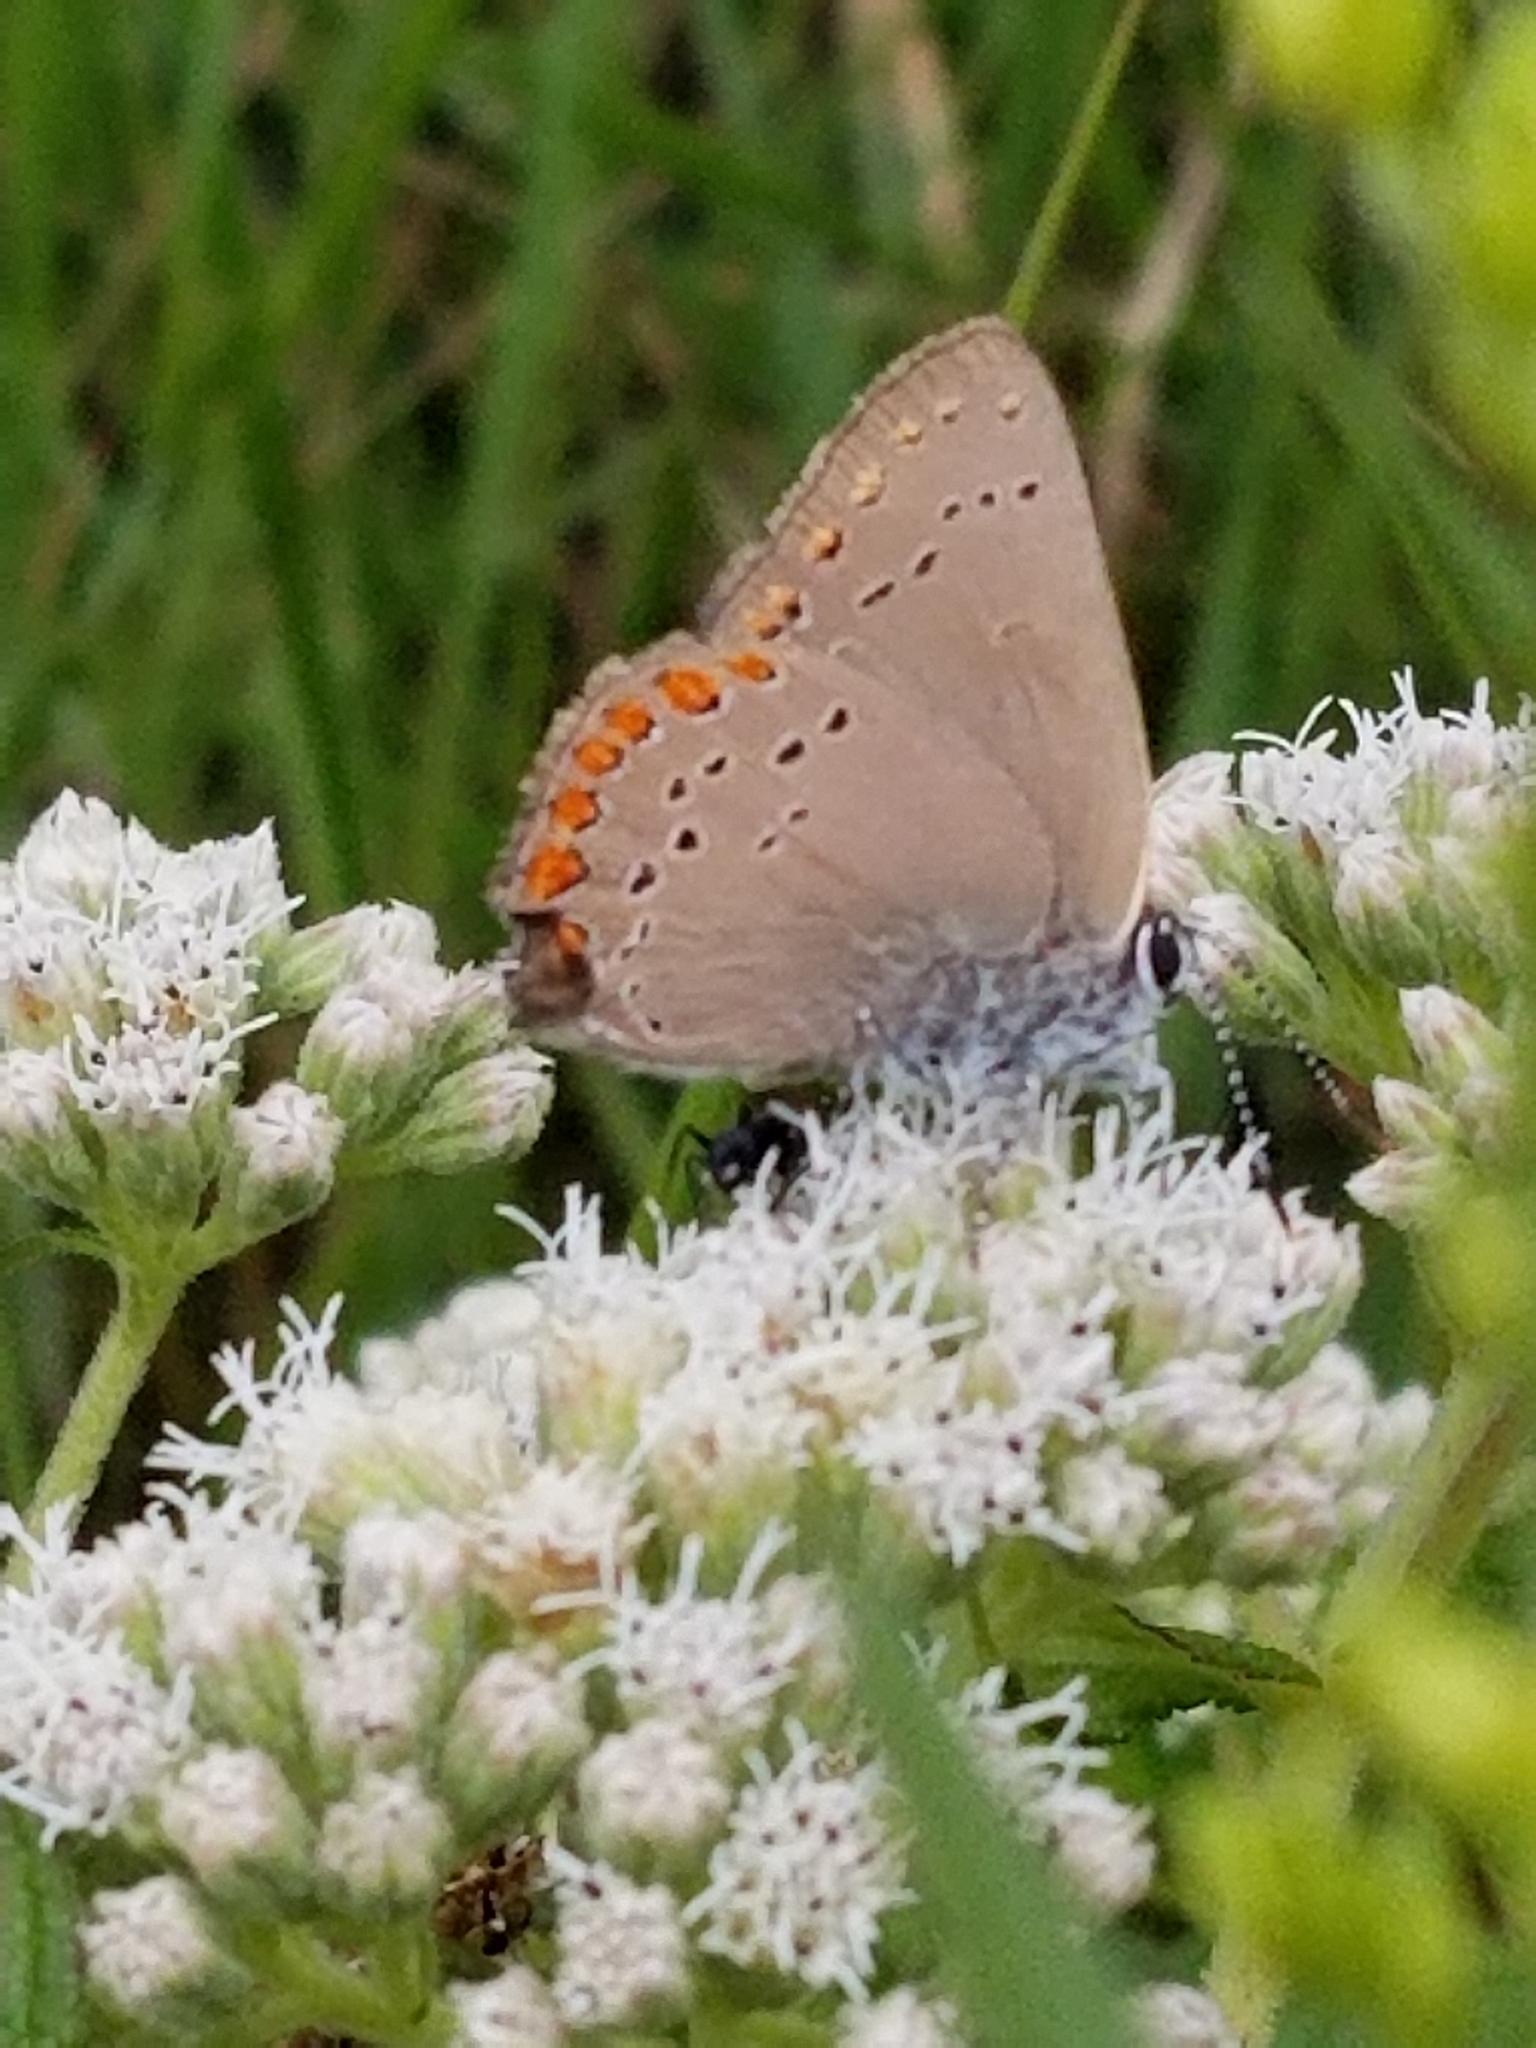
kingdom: Animalia
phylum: Arthropoda
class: Insecta
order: Lepidoptera
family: Lycaenidae
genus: Harkenclenus
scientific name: Harkenclenus titus
